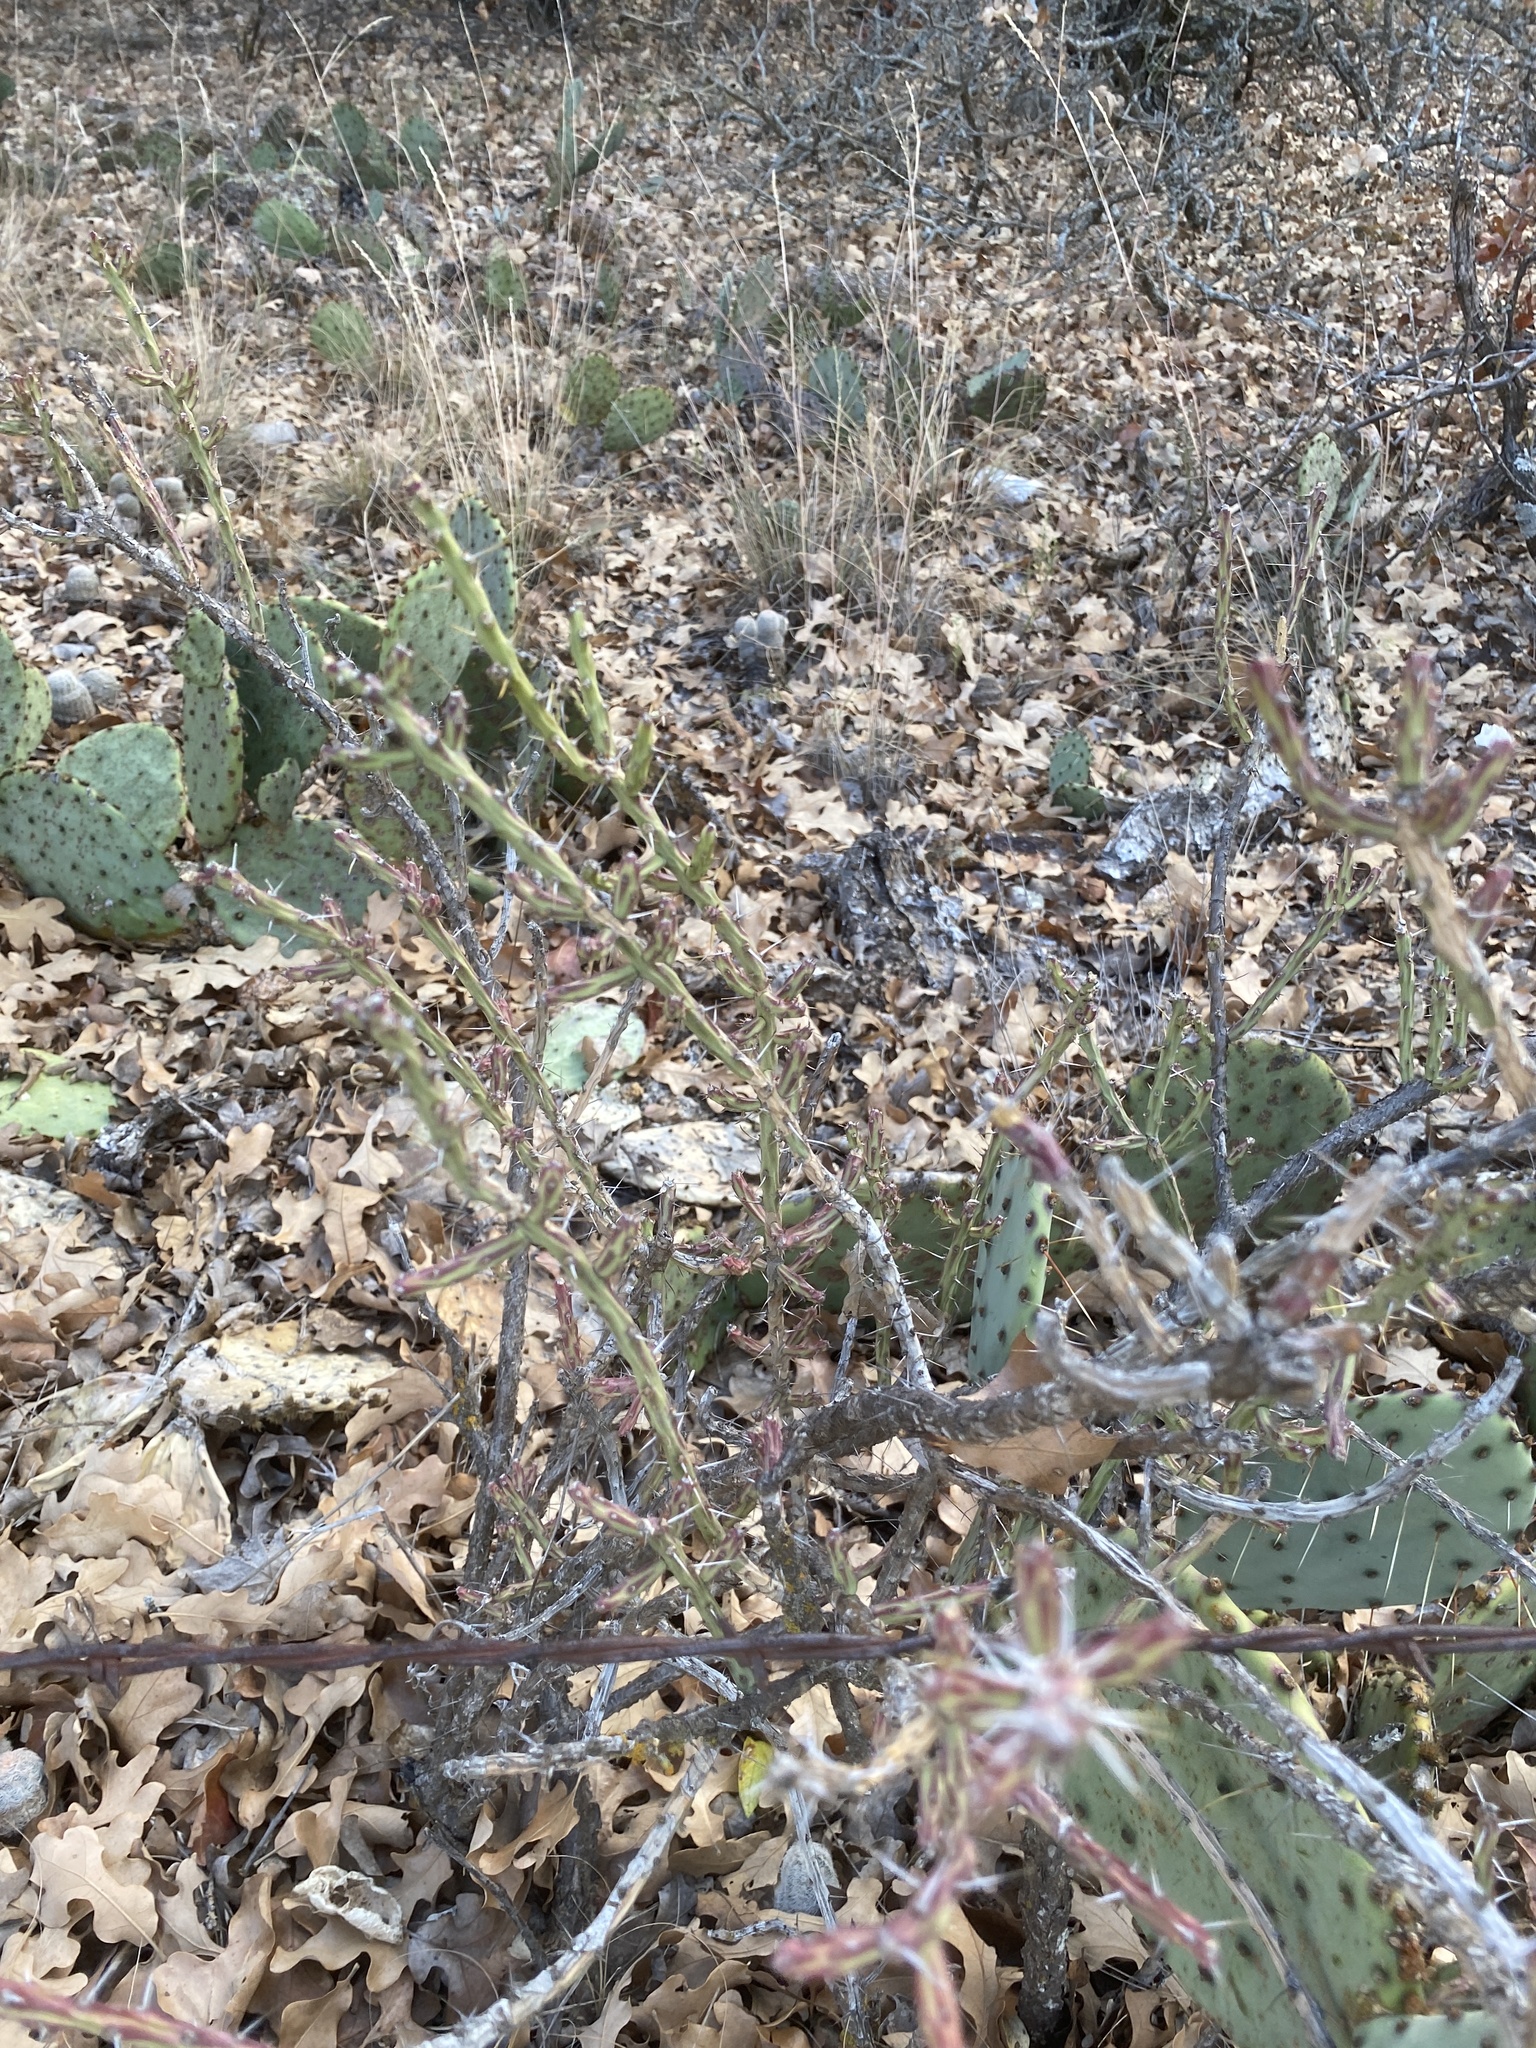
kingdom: Plantae
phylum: Tracheophyta
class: Magnoliopsida
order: Caryophyllales
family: Cactaceae
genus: Cylindropuntia
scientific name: Cylindropuntia leptocaulis
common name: Christmas cactus
